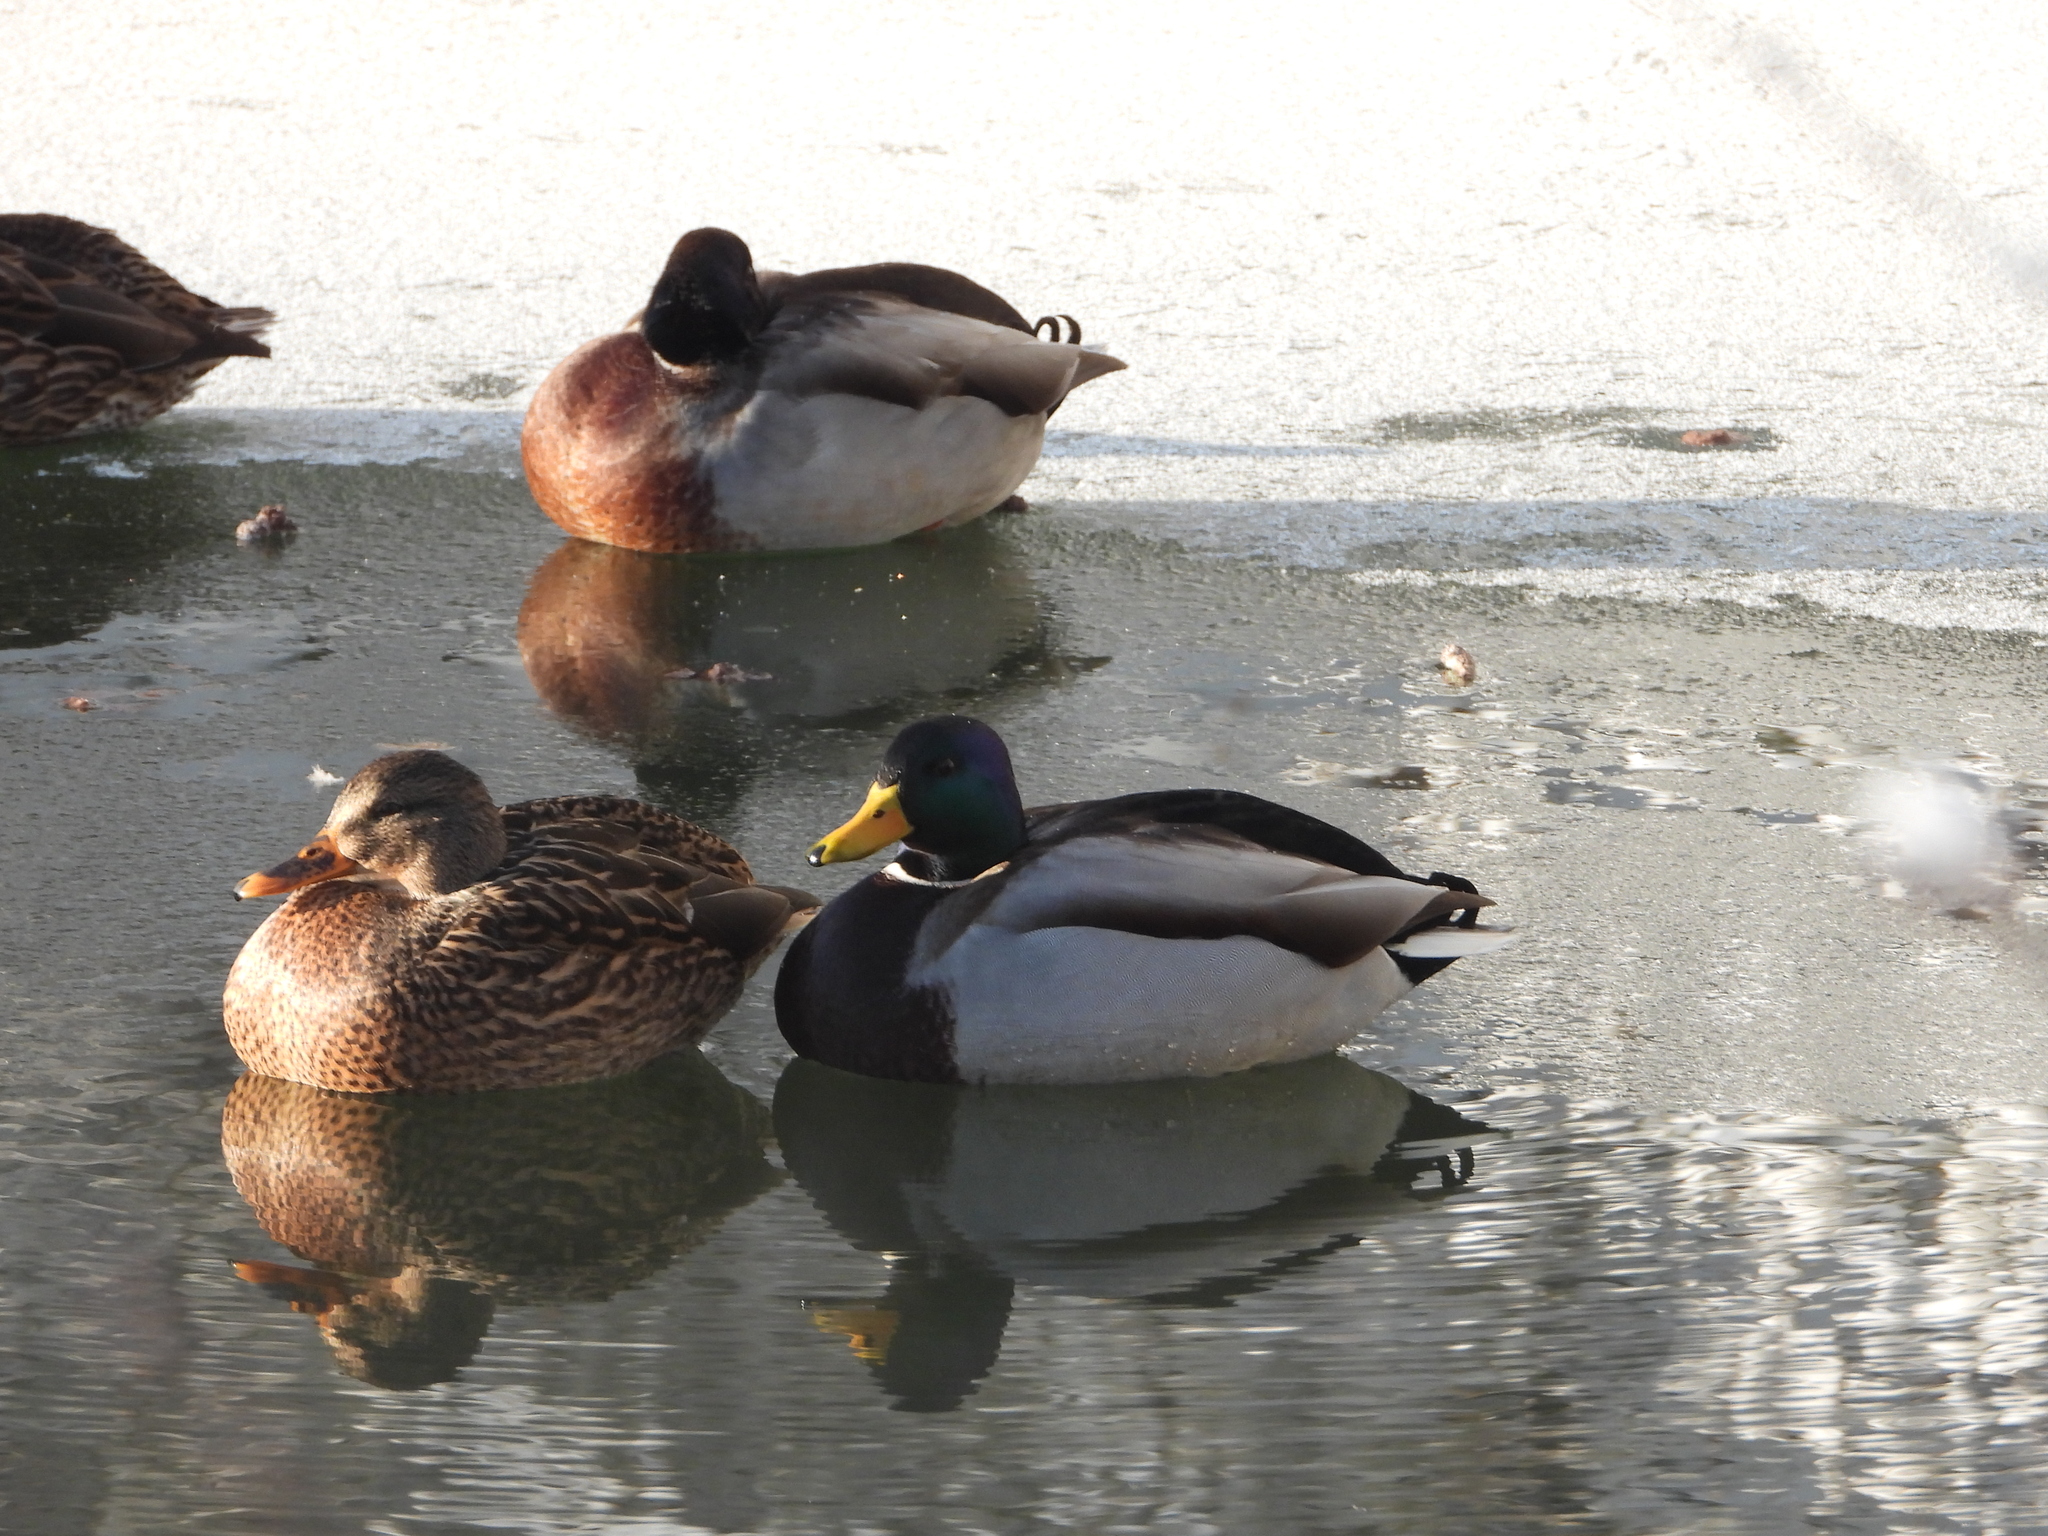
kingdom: Animalia
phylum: Chordata
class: Aves
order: Anseriformes
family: Anatidae
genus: Anas
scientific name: Anas platyrhynchos
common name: Mallard
